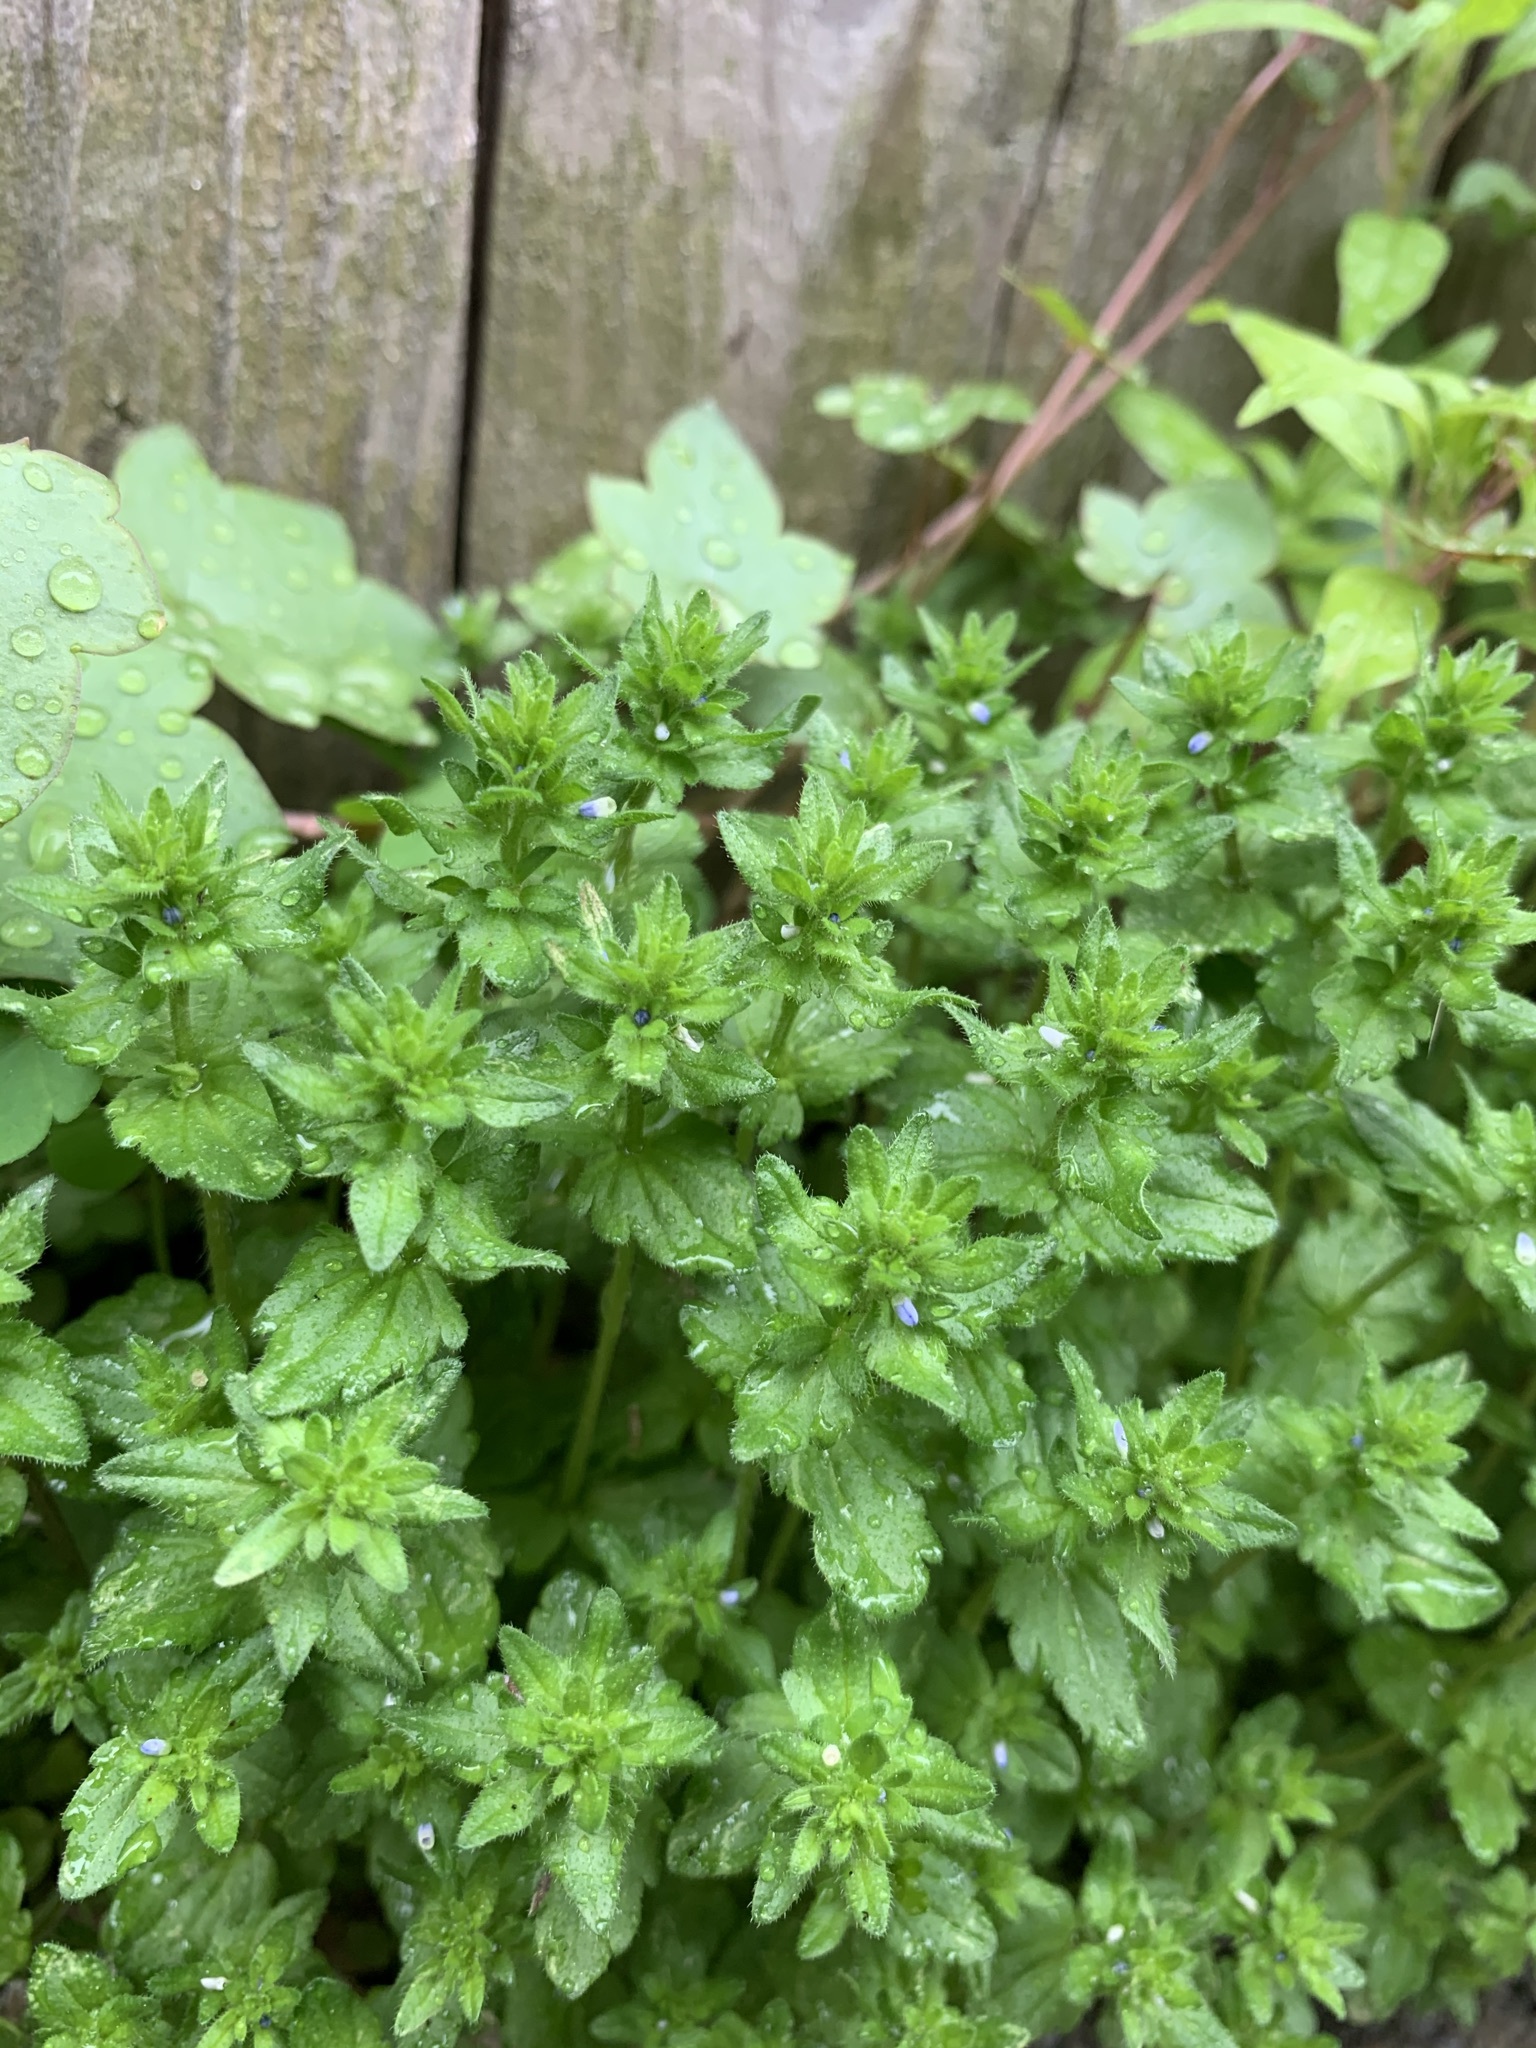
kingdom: Plantae
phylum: Tracheophyta
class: Magnoliopsida
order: Lamiales
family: Plantaginaceae
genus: Veronica
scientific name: Veronica arvensis
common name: Corn speedwell
